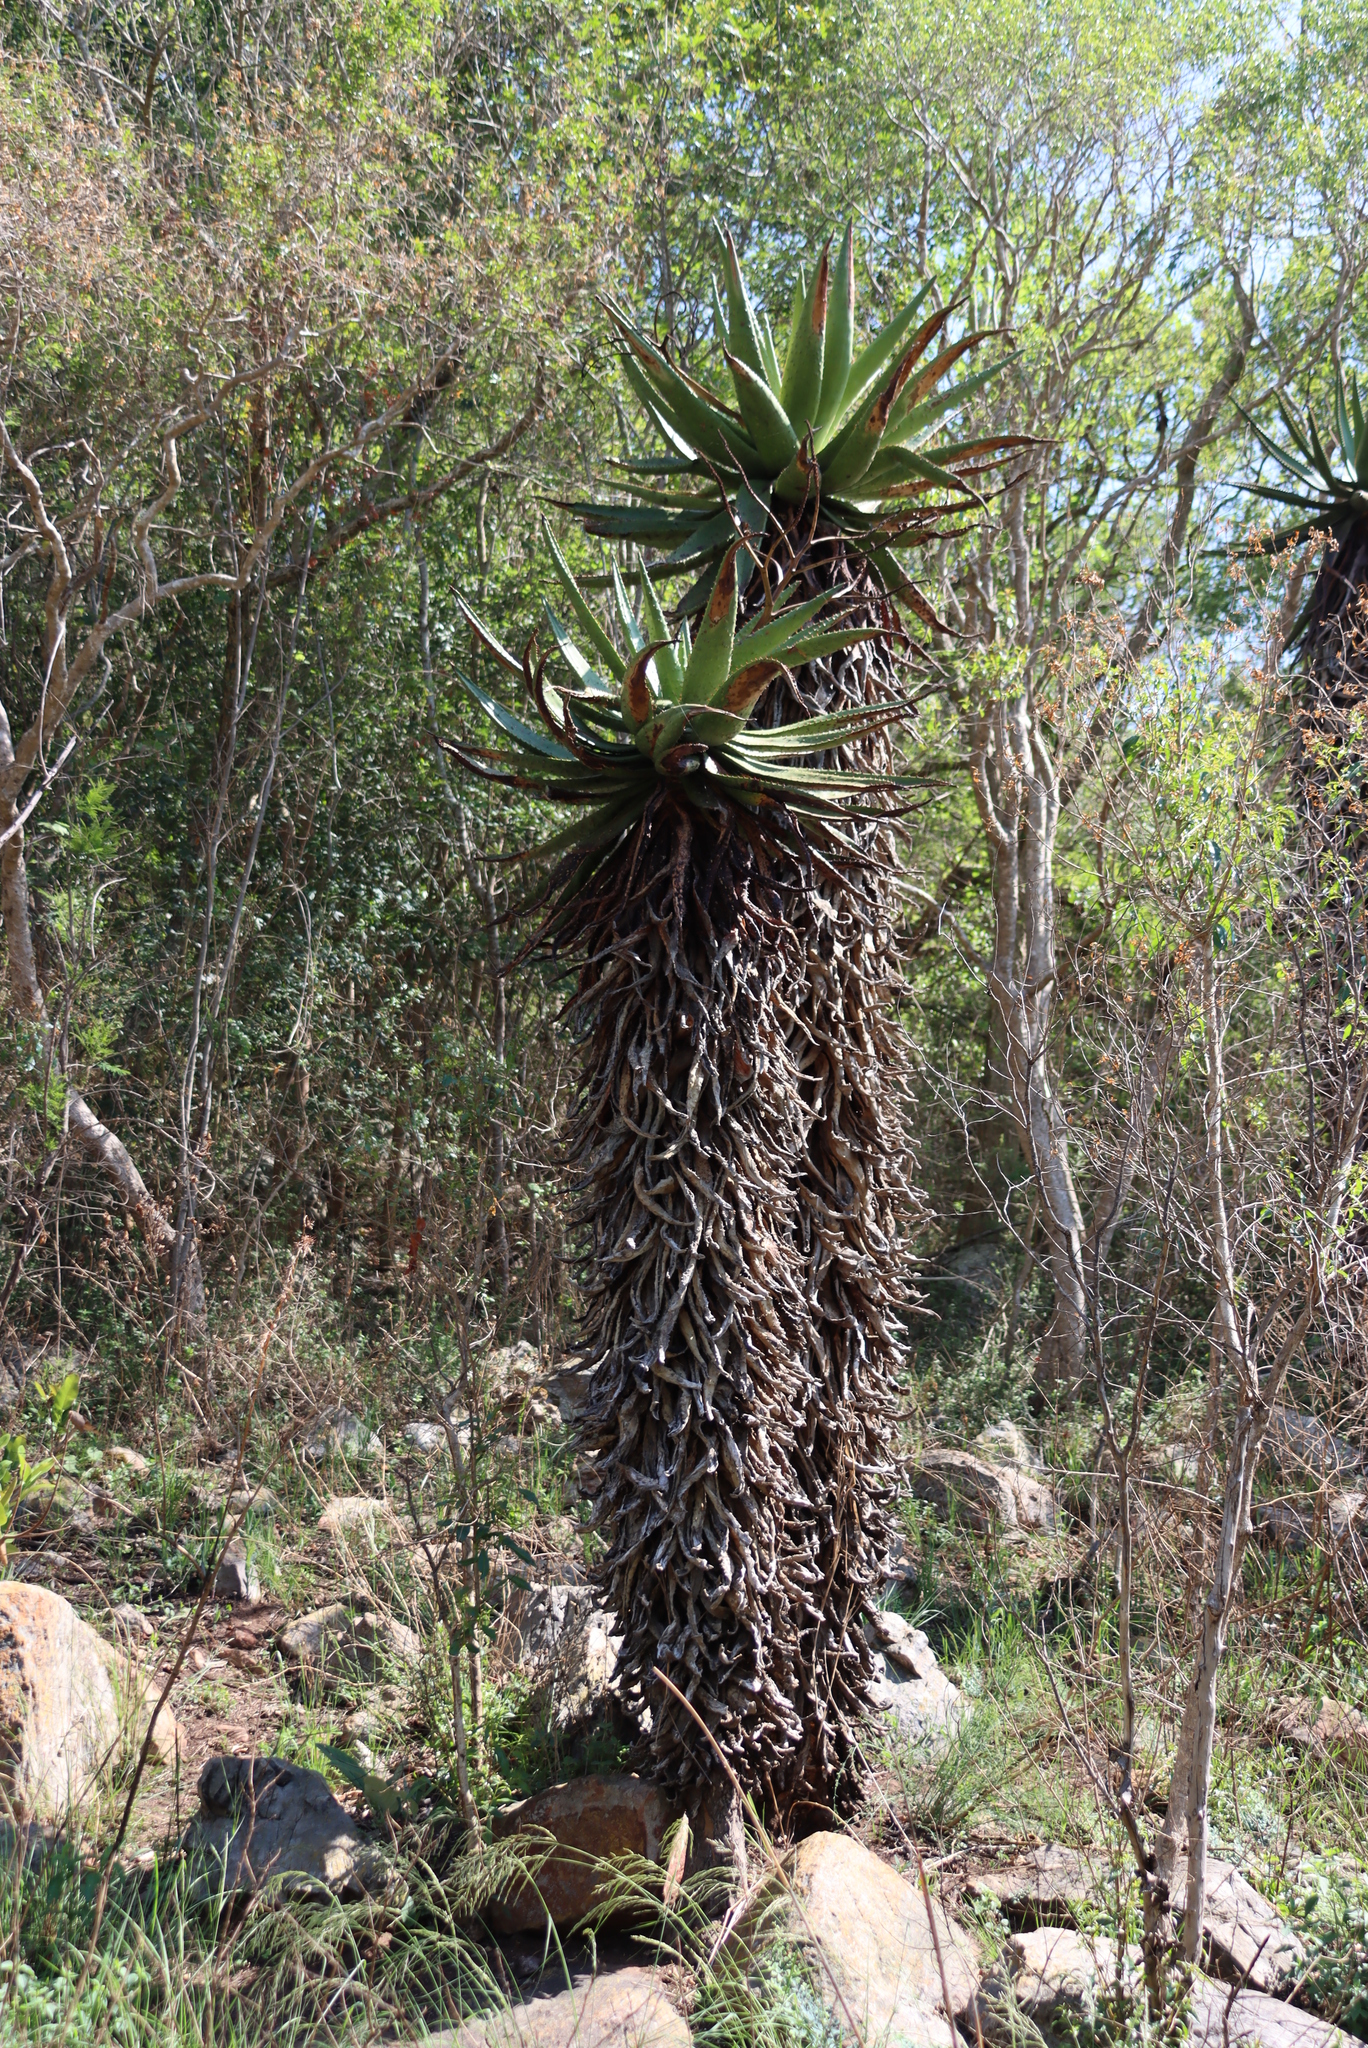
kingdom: Plantae
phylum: Tracheophyta
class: Liliopsida
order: Asparagales
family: Asphodelaceae
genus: Aloe
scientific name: Aloe marlothii
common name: Flat-flowered aloe
